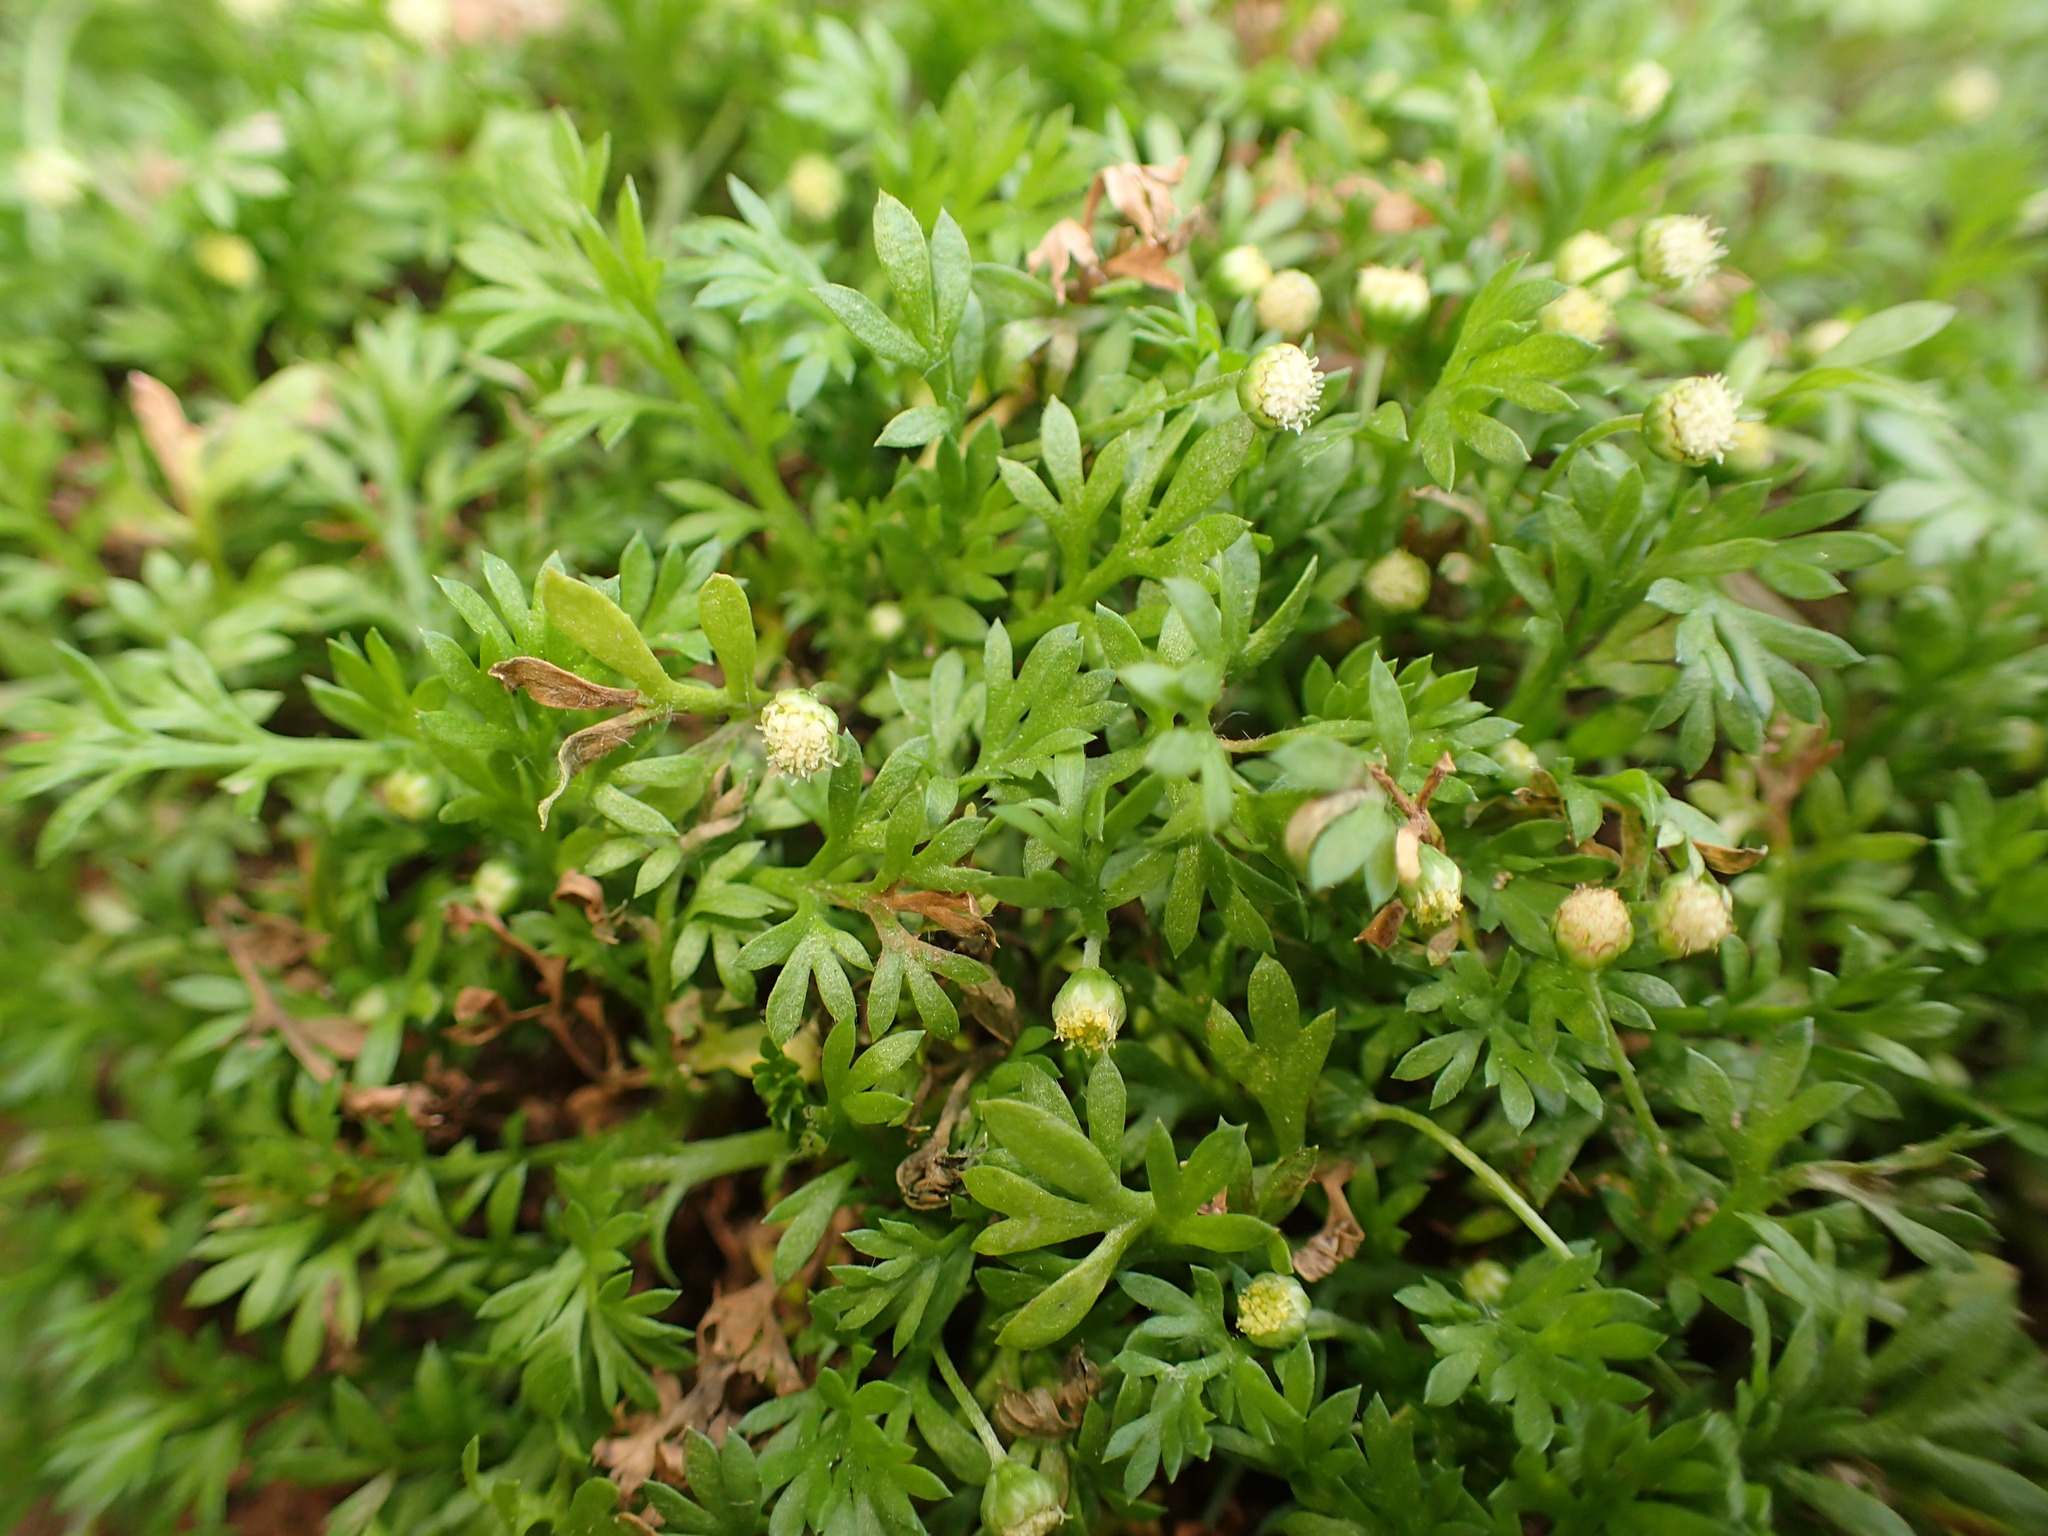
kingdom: Plantae
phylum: Tracheophyta
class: Magnoliopsida
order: Asterales
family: Asteraceae
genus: Cotula
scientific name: Cotula australis
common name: Australian waterbuttons
